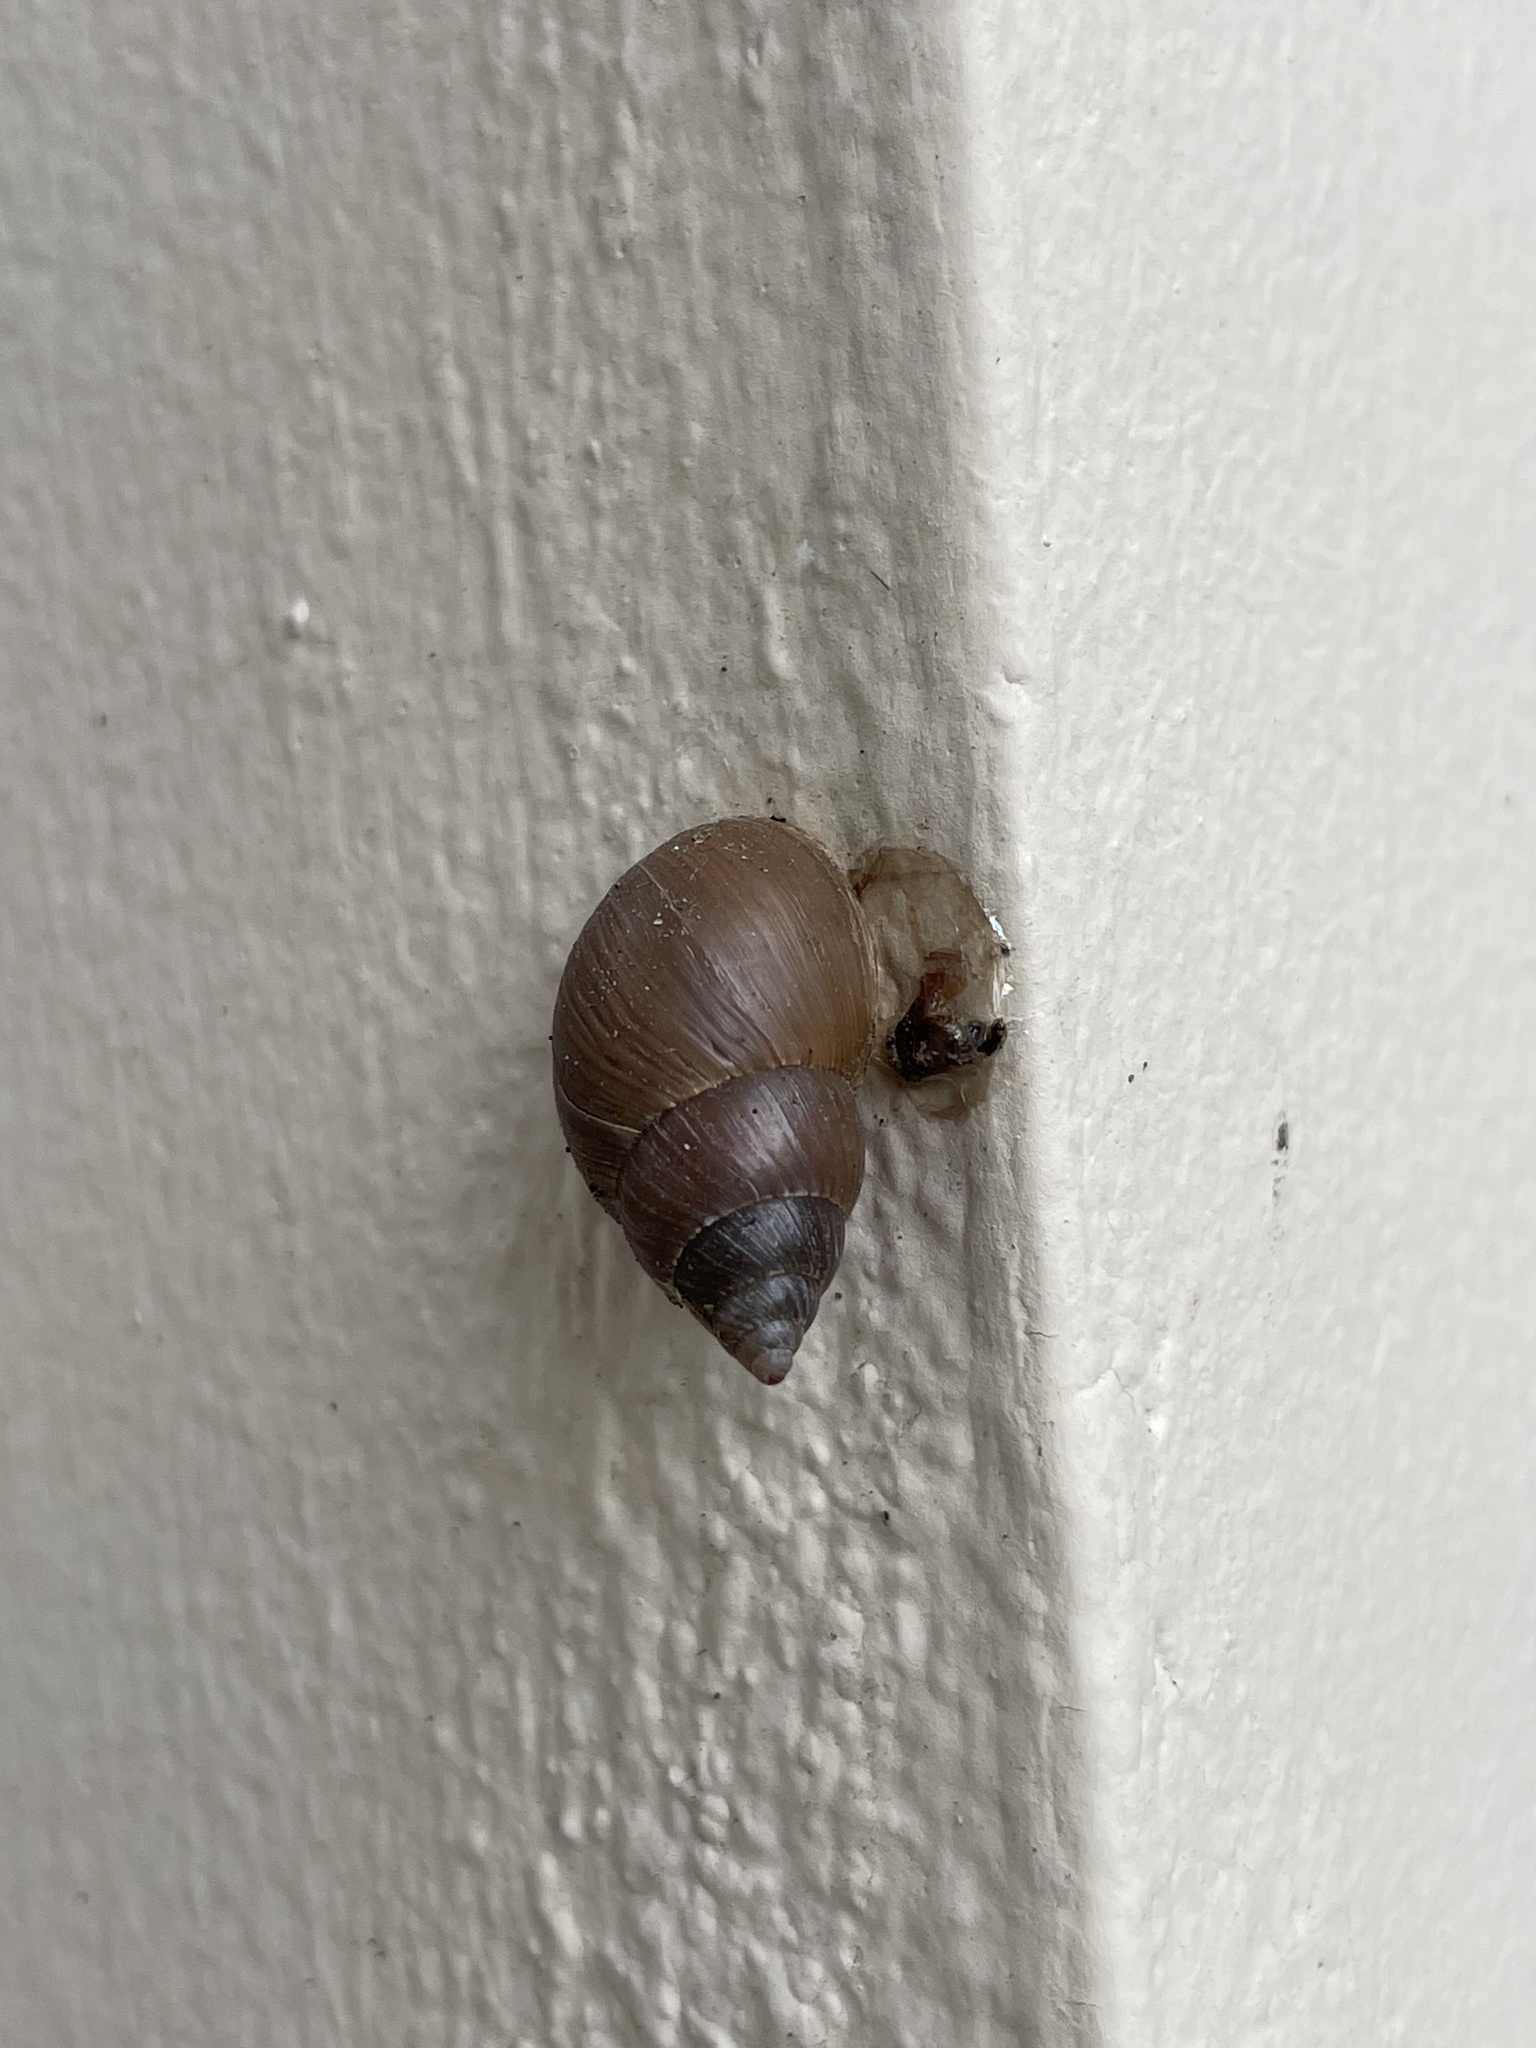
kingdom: Animalia
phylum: Mollusca
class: Gastropoda
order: Stylommatophora
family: Bulimulidae
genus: Naesiotus
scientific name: Naesiotus quitensis
